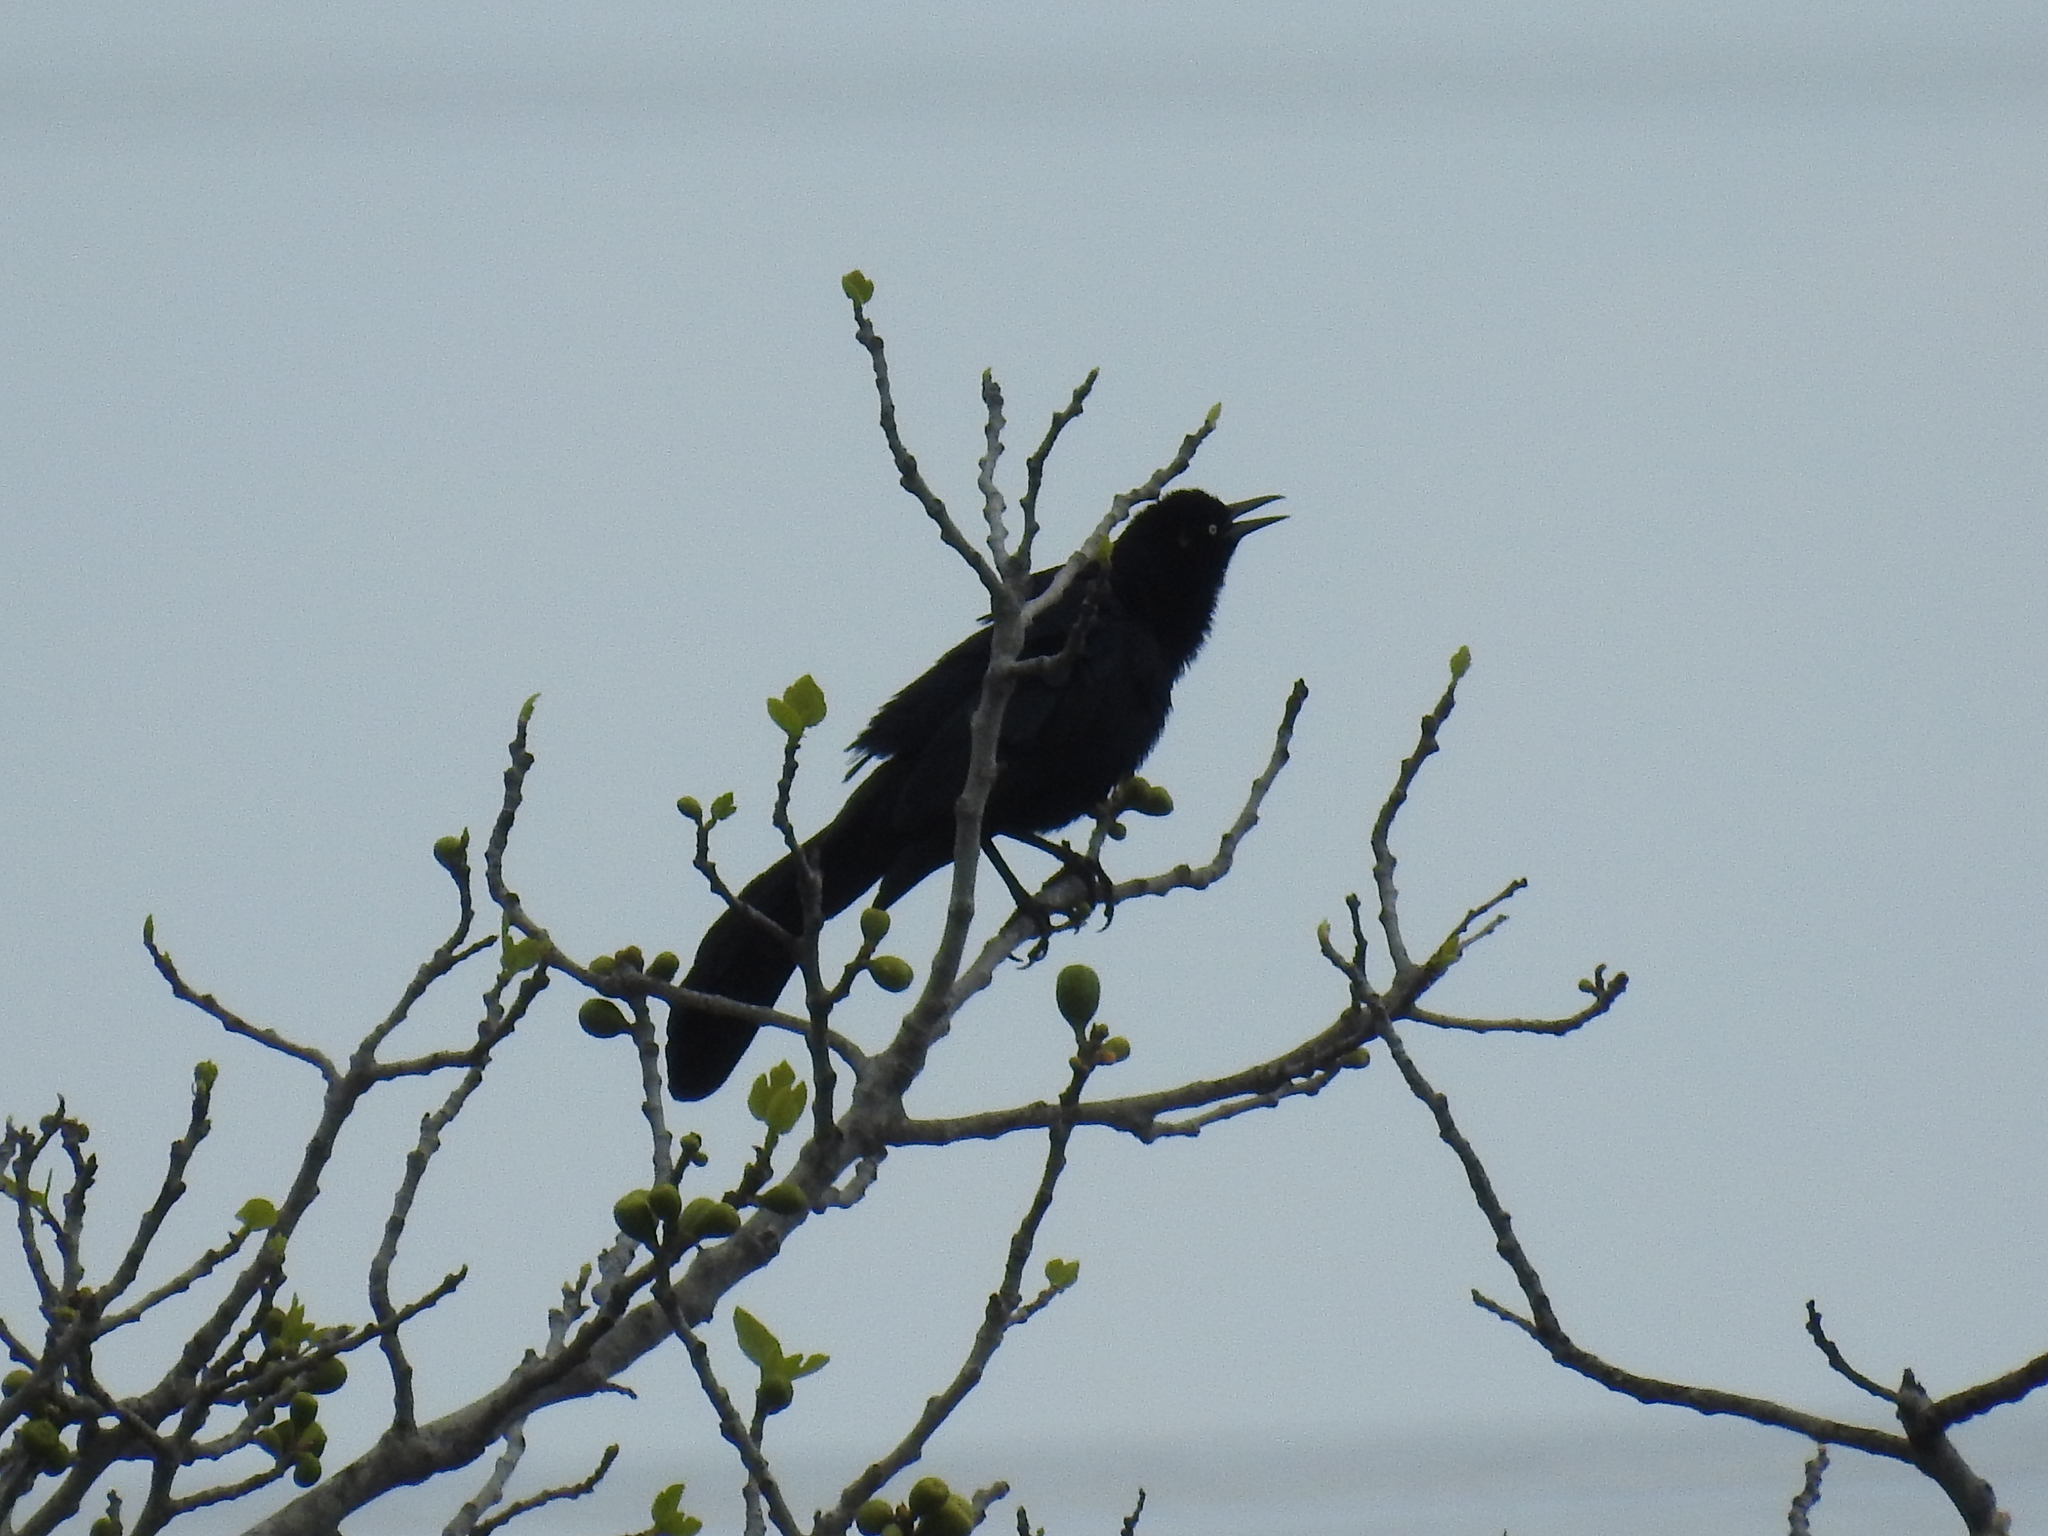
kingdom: Animalia
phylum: Chordata
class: Aves
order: Passeriformes
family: Icteridae
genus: Quiscalus
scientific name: Quiscalus mexicanus
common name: Great-tailed grackle
